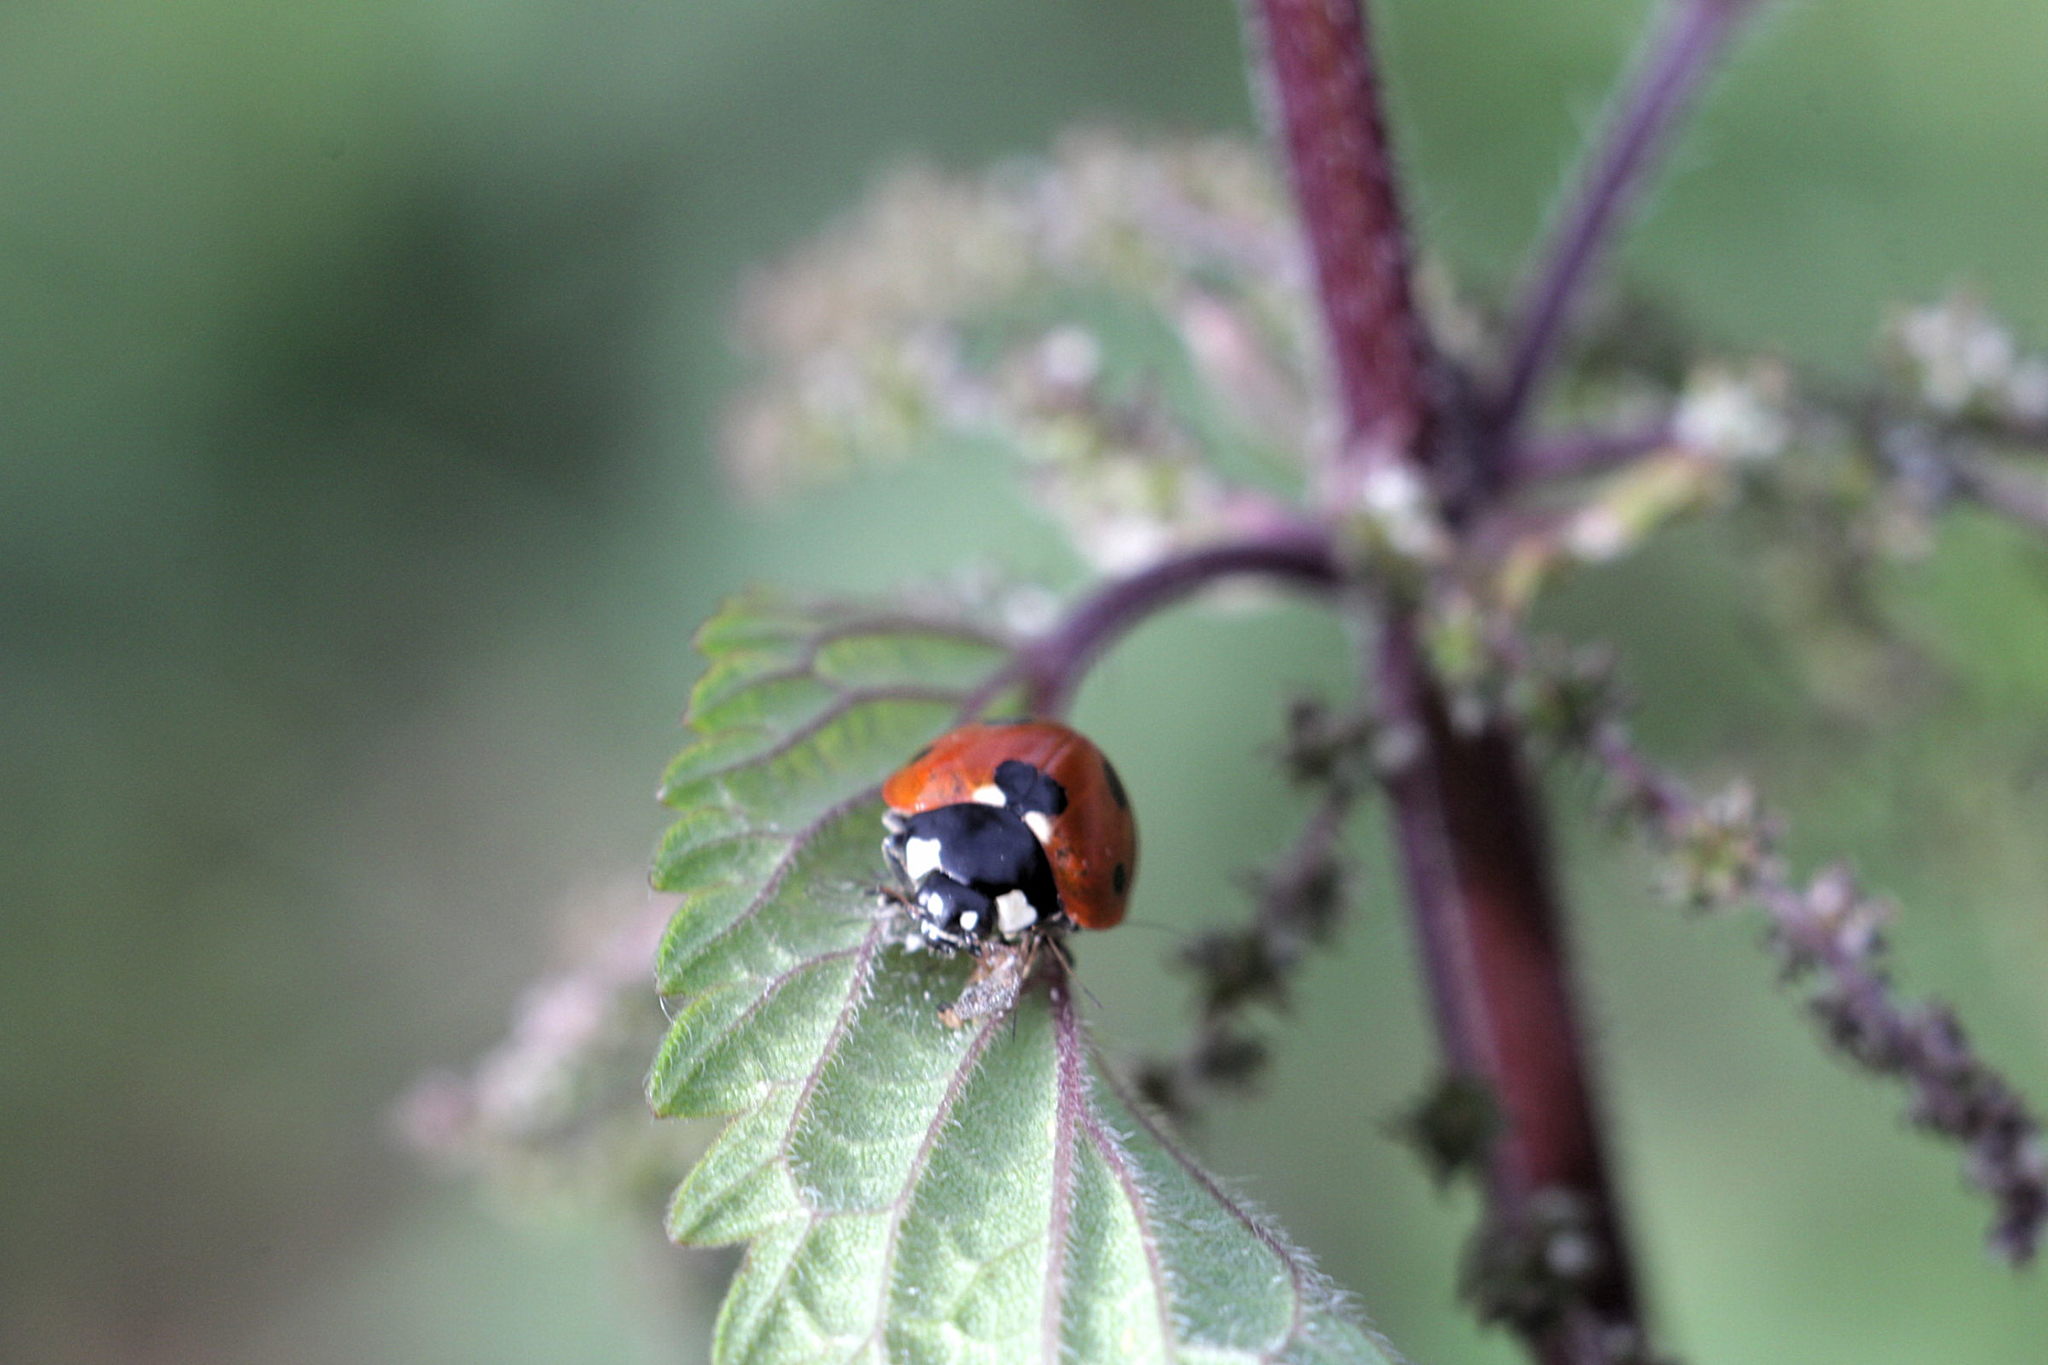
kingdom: Animalia
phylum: Arthropoda
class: Insecta
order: Coleoptera
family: Coccinellidae
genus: Coccinella
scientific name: Coccinella septempunctata
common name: Sevenspotted lady beetle
